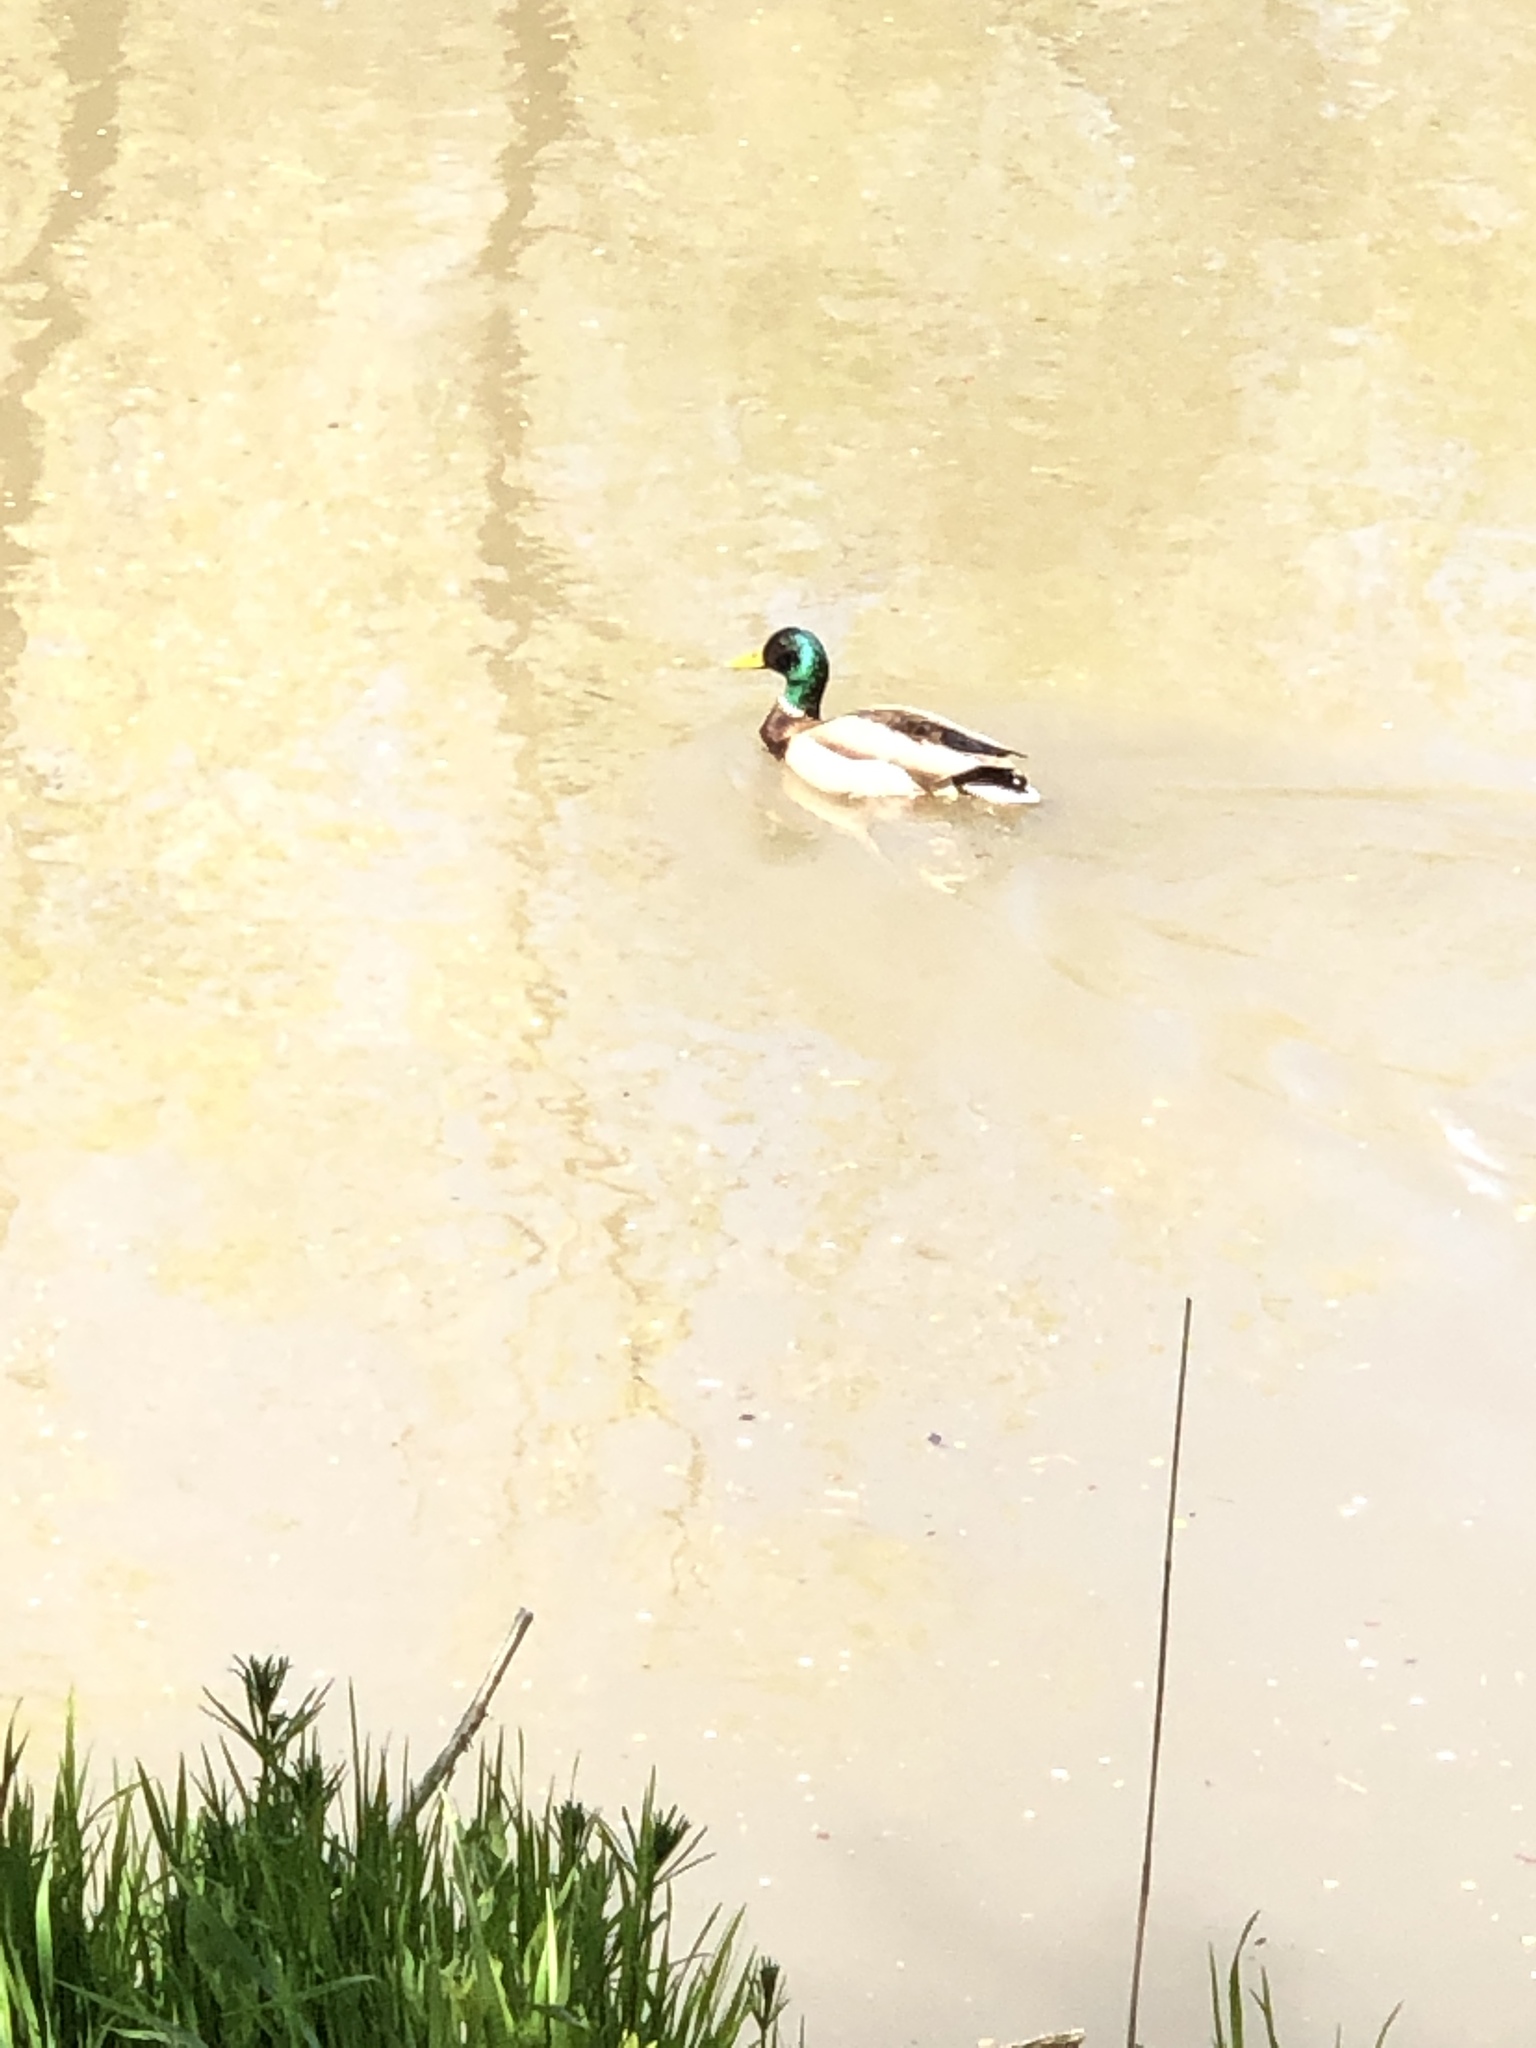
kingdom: Animalia
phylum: Chordata
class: Aves
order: Anseriformes
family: Anatidae
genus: Anas
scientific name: Anas platyrhynchos
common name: Mallard
